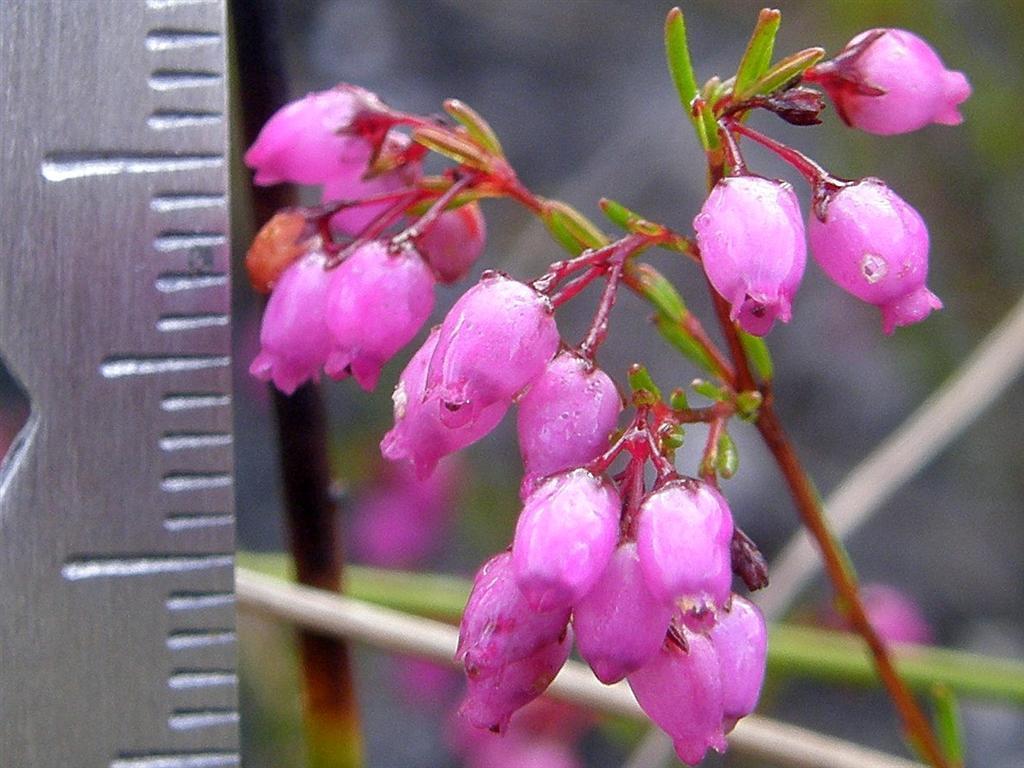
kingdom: Plantae
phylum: Tracheophyta
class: Magnoliopsida
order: Ericales
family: Ericaceae
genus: Erica
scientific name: Erica multumbellifera
